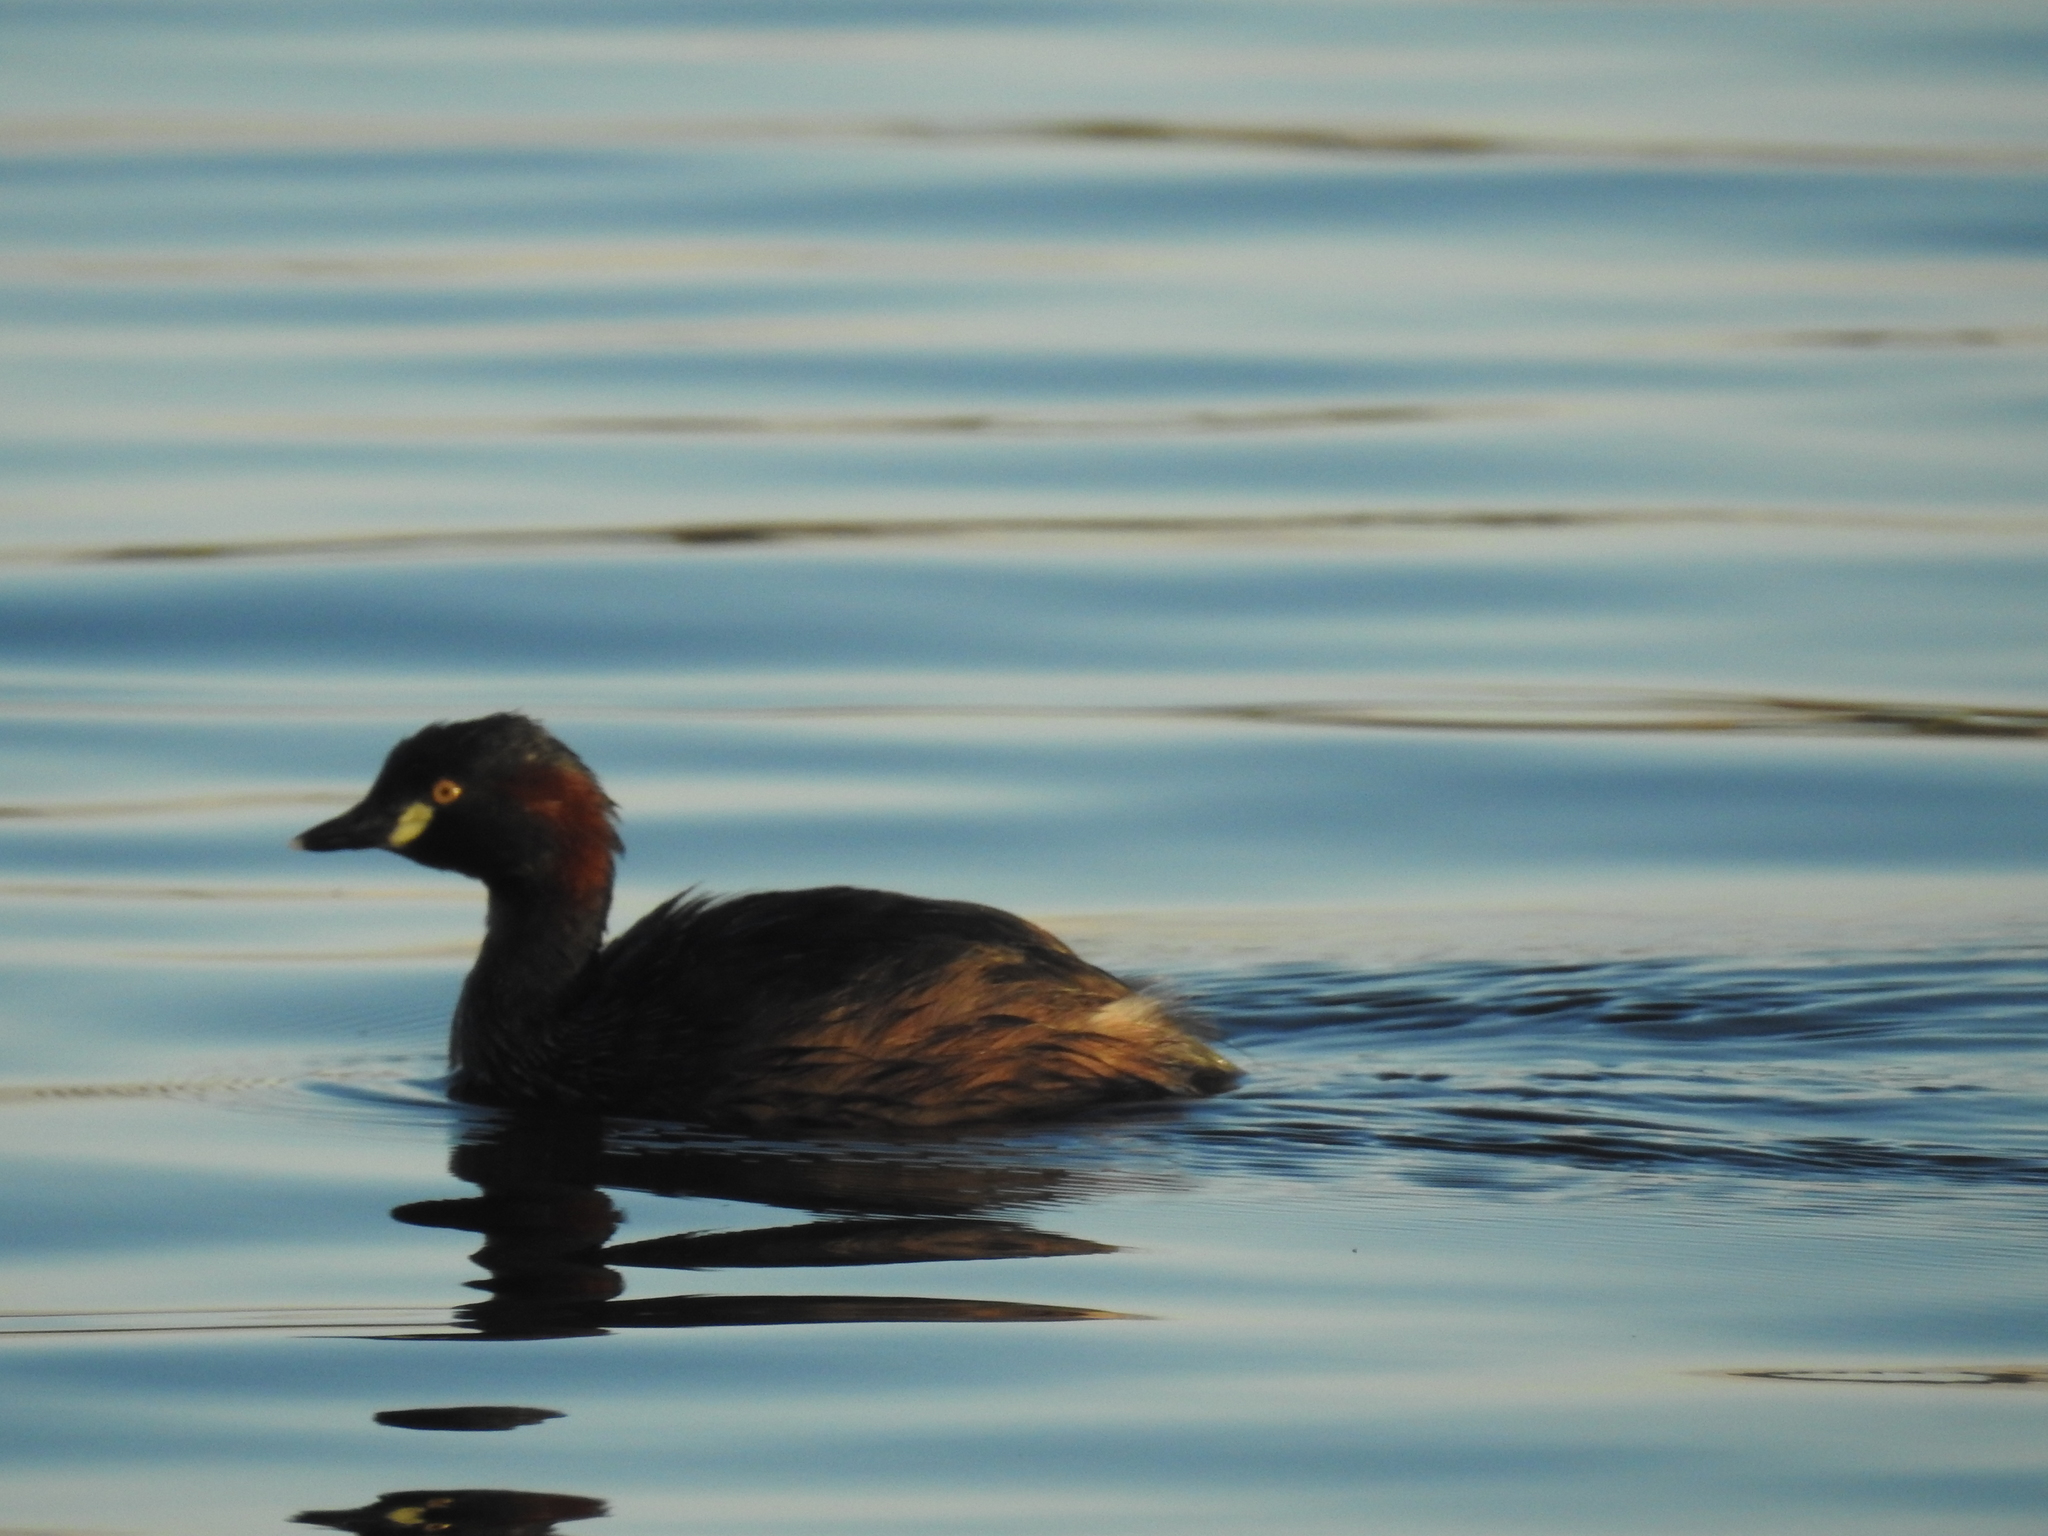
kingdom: Animalia
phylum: Chordata
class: Aves
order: Podicipediformes
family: Podicipedidae
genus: Tachybaptus
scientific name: Tachybaptus novaehollandiae
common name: Australasian grebe
